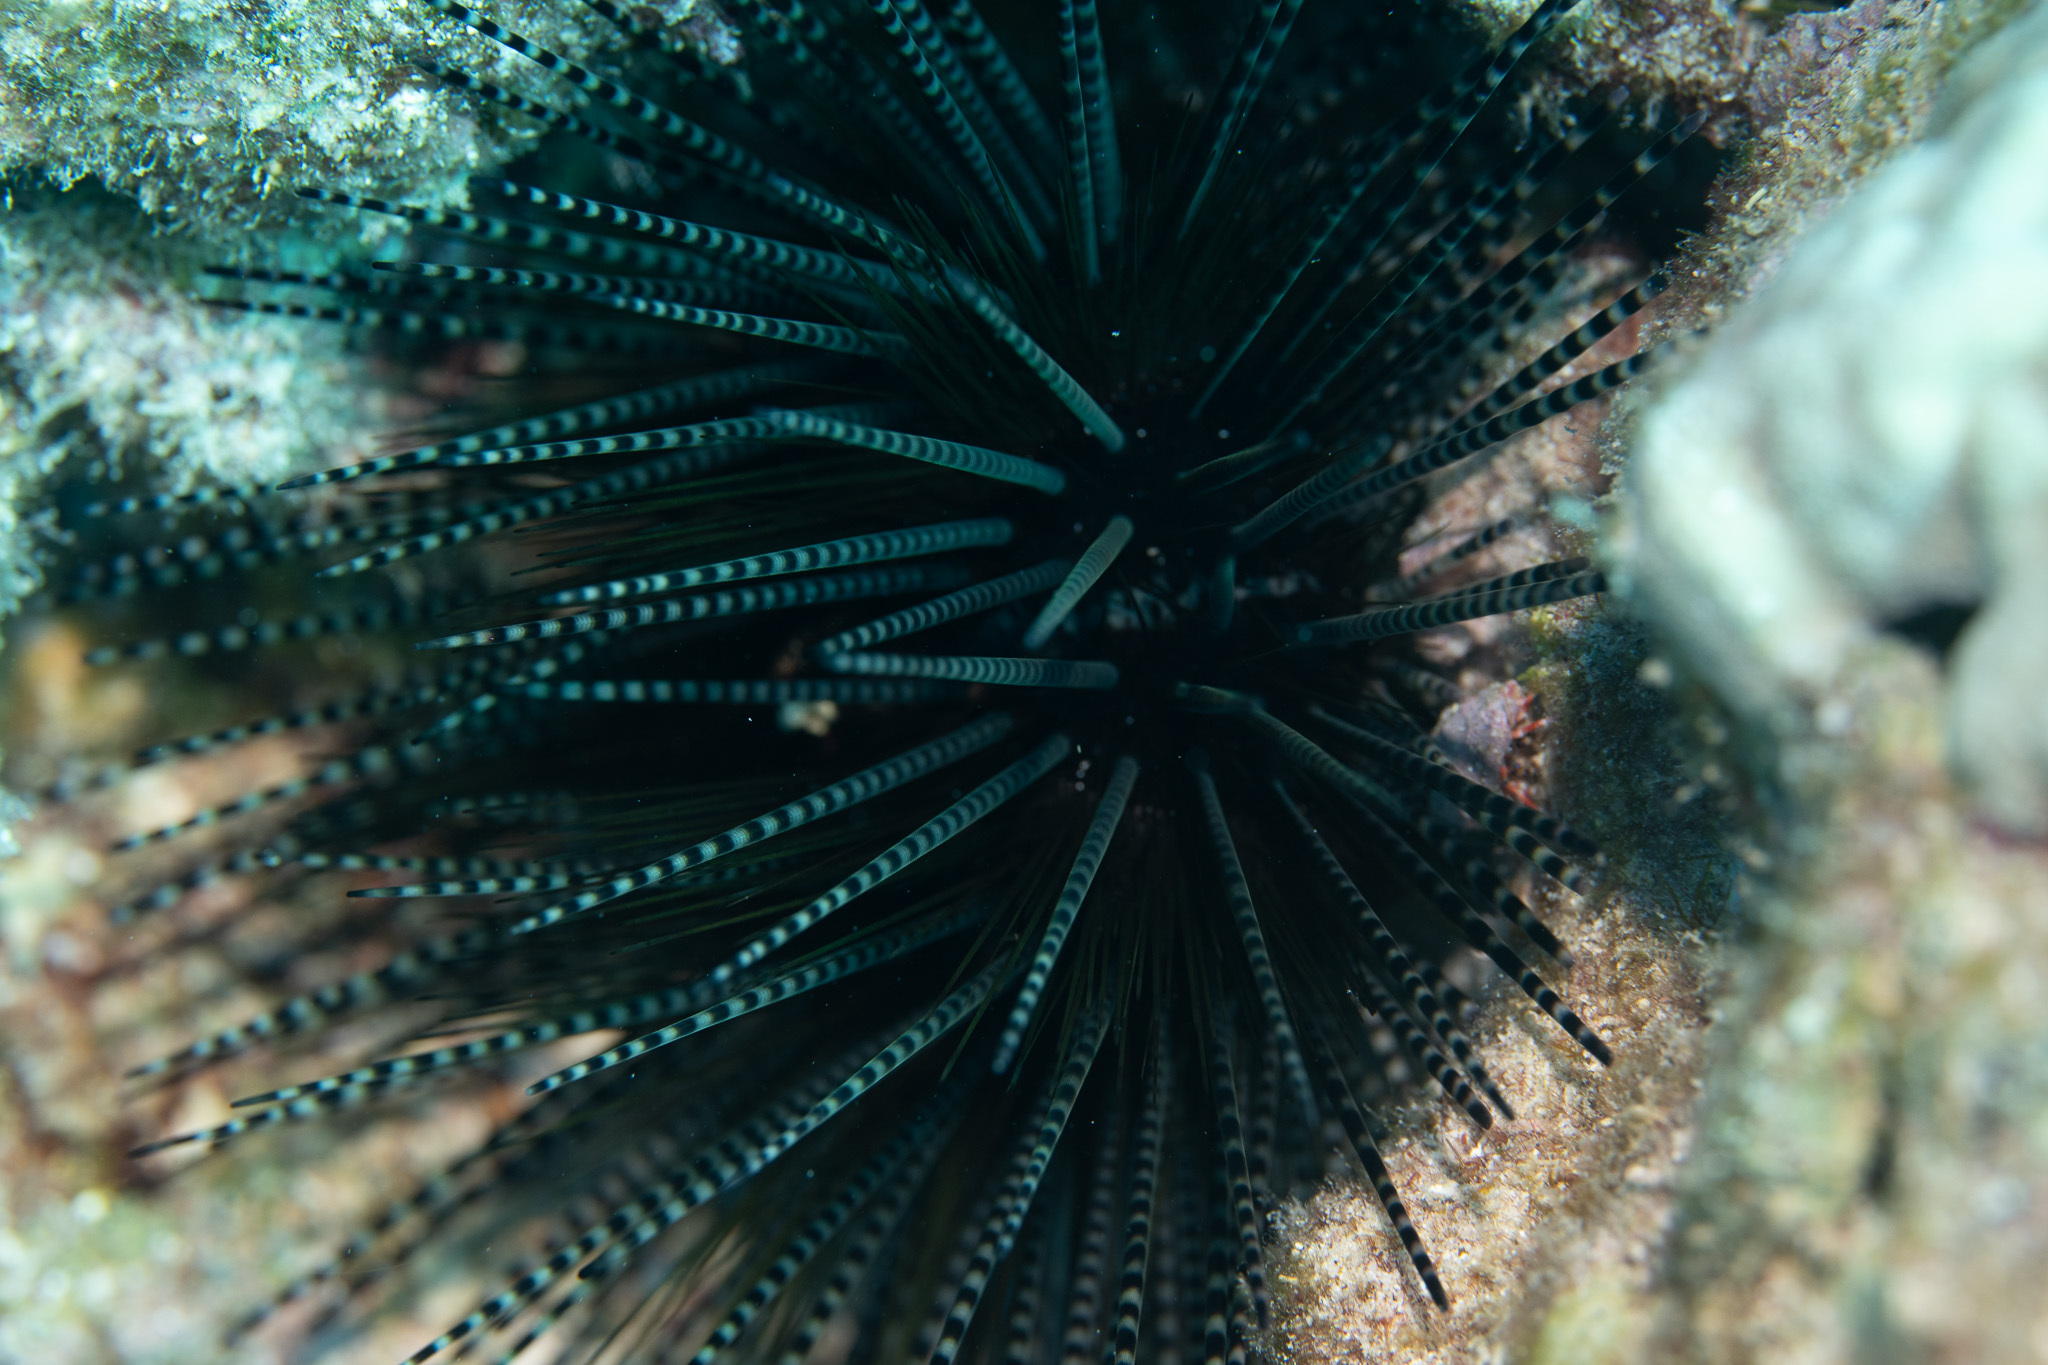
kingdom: Animalia
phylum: Echinodermata
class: Echinoidea
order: Diadematoida
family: Diadematidae
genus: Echinothrix
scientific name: Echinothrix calamaris
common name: Banded sea urchin
